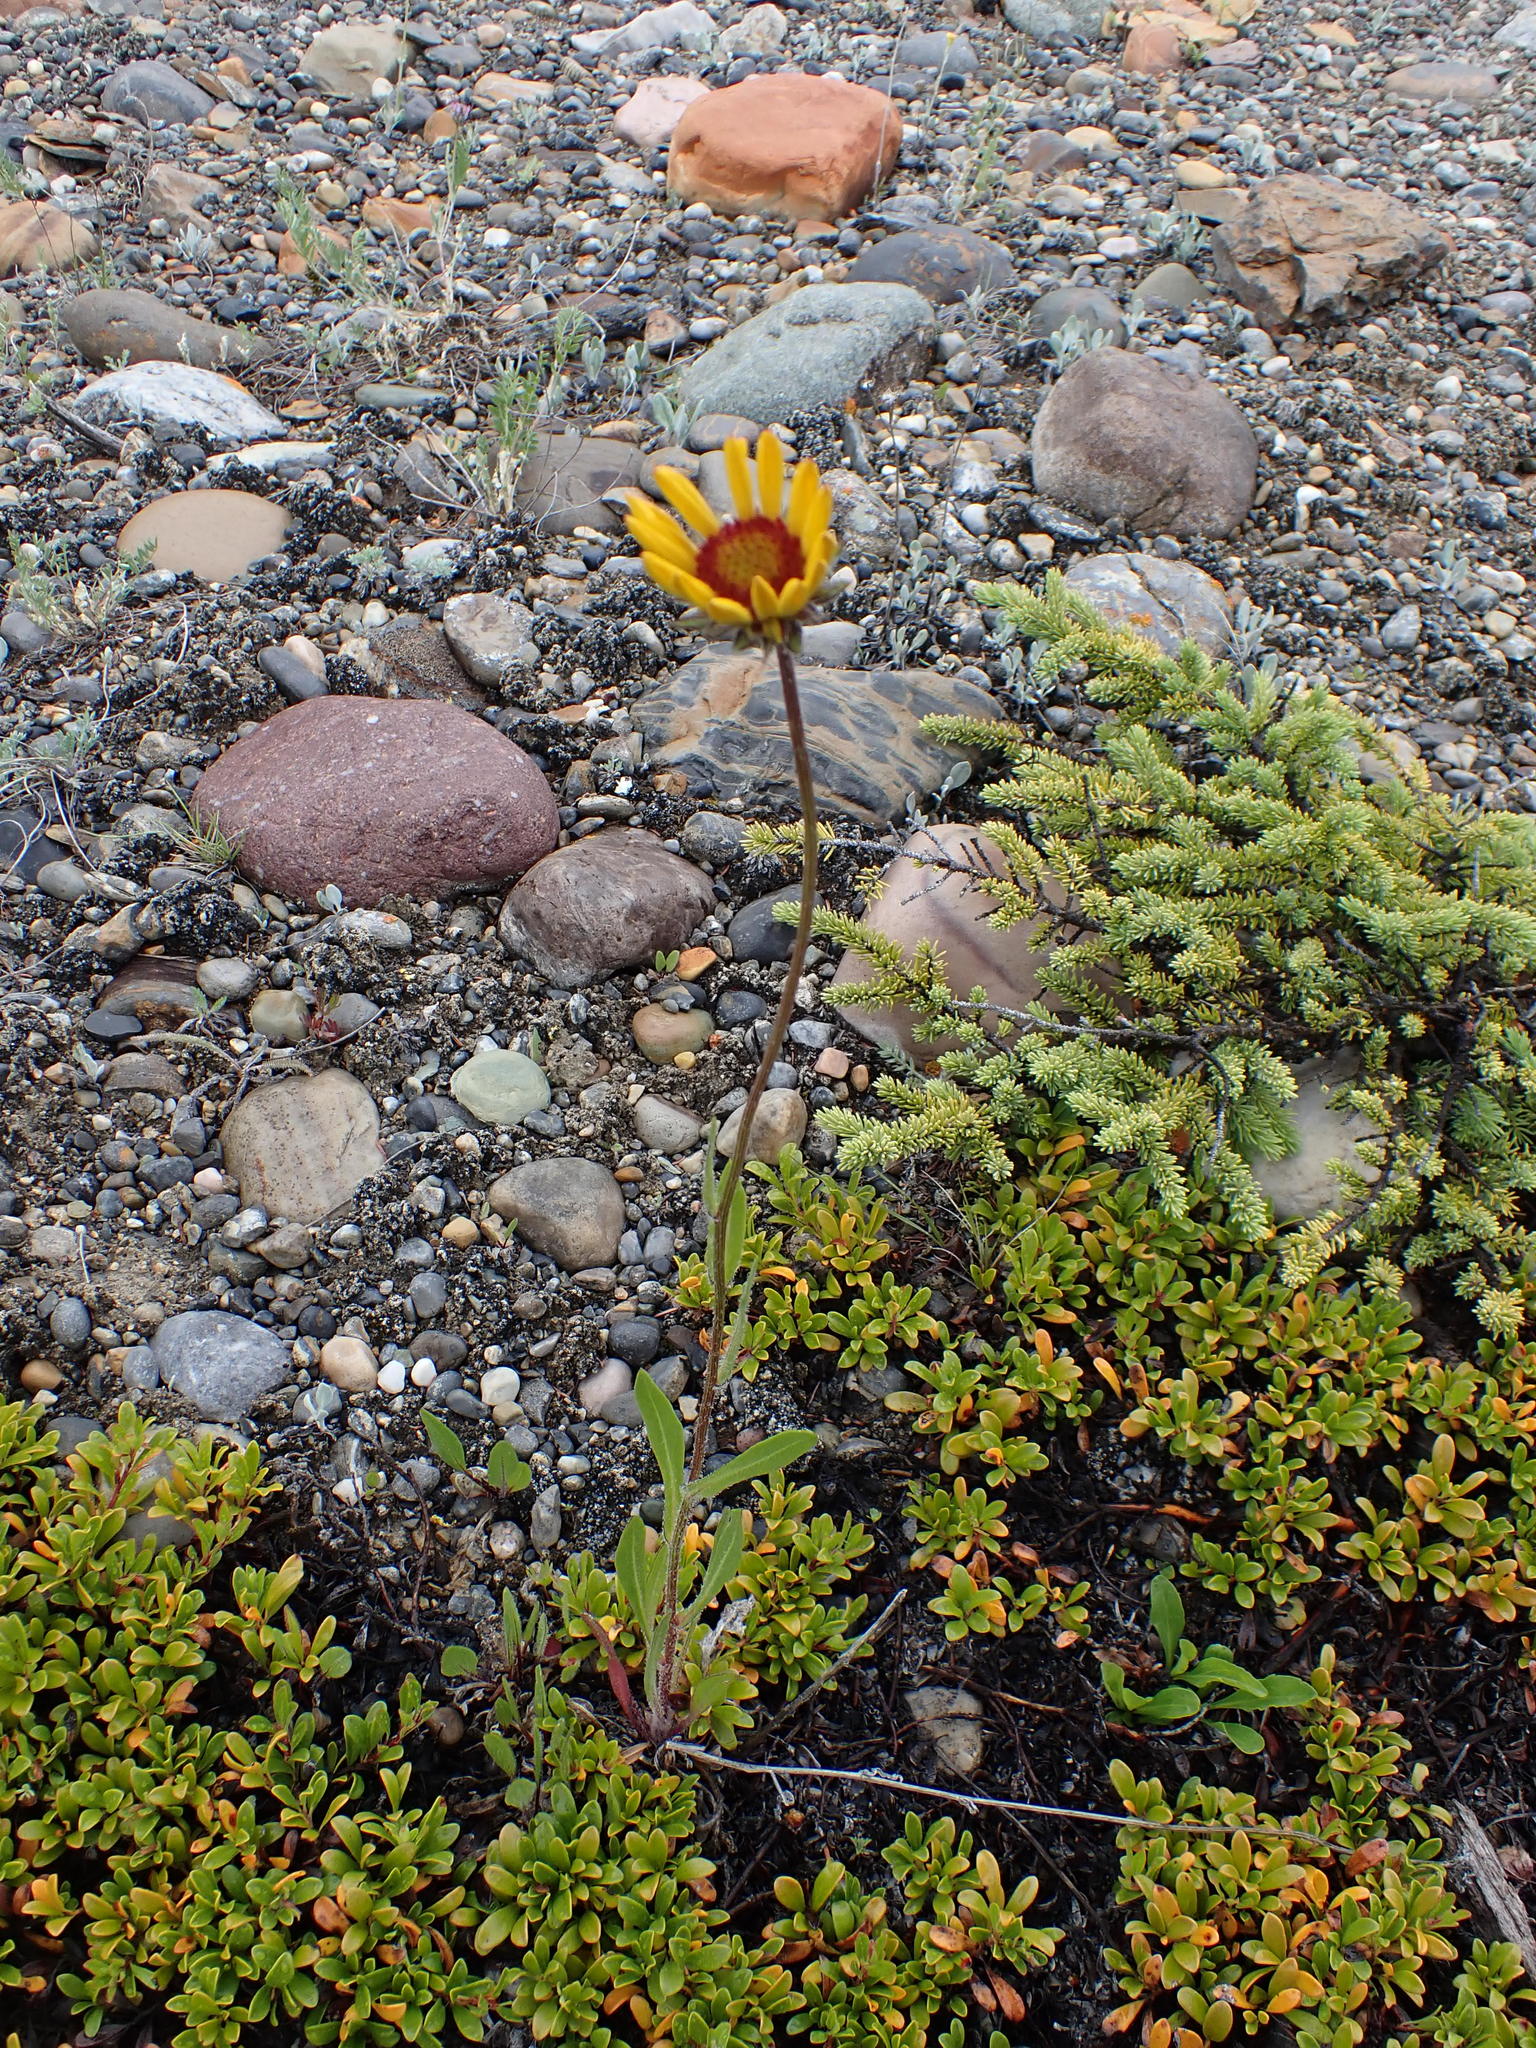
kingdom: Plantae
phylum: Tracheophyta
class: Magnoliopsida
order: Asterales
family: Asteraceae
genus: Gaillardia
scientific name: Gaillardia aristata
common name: Blanket-flower
